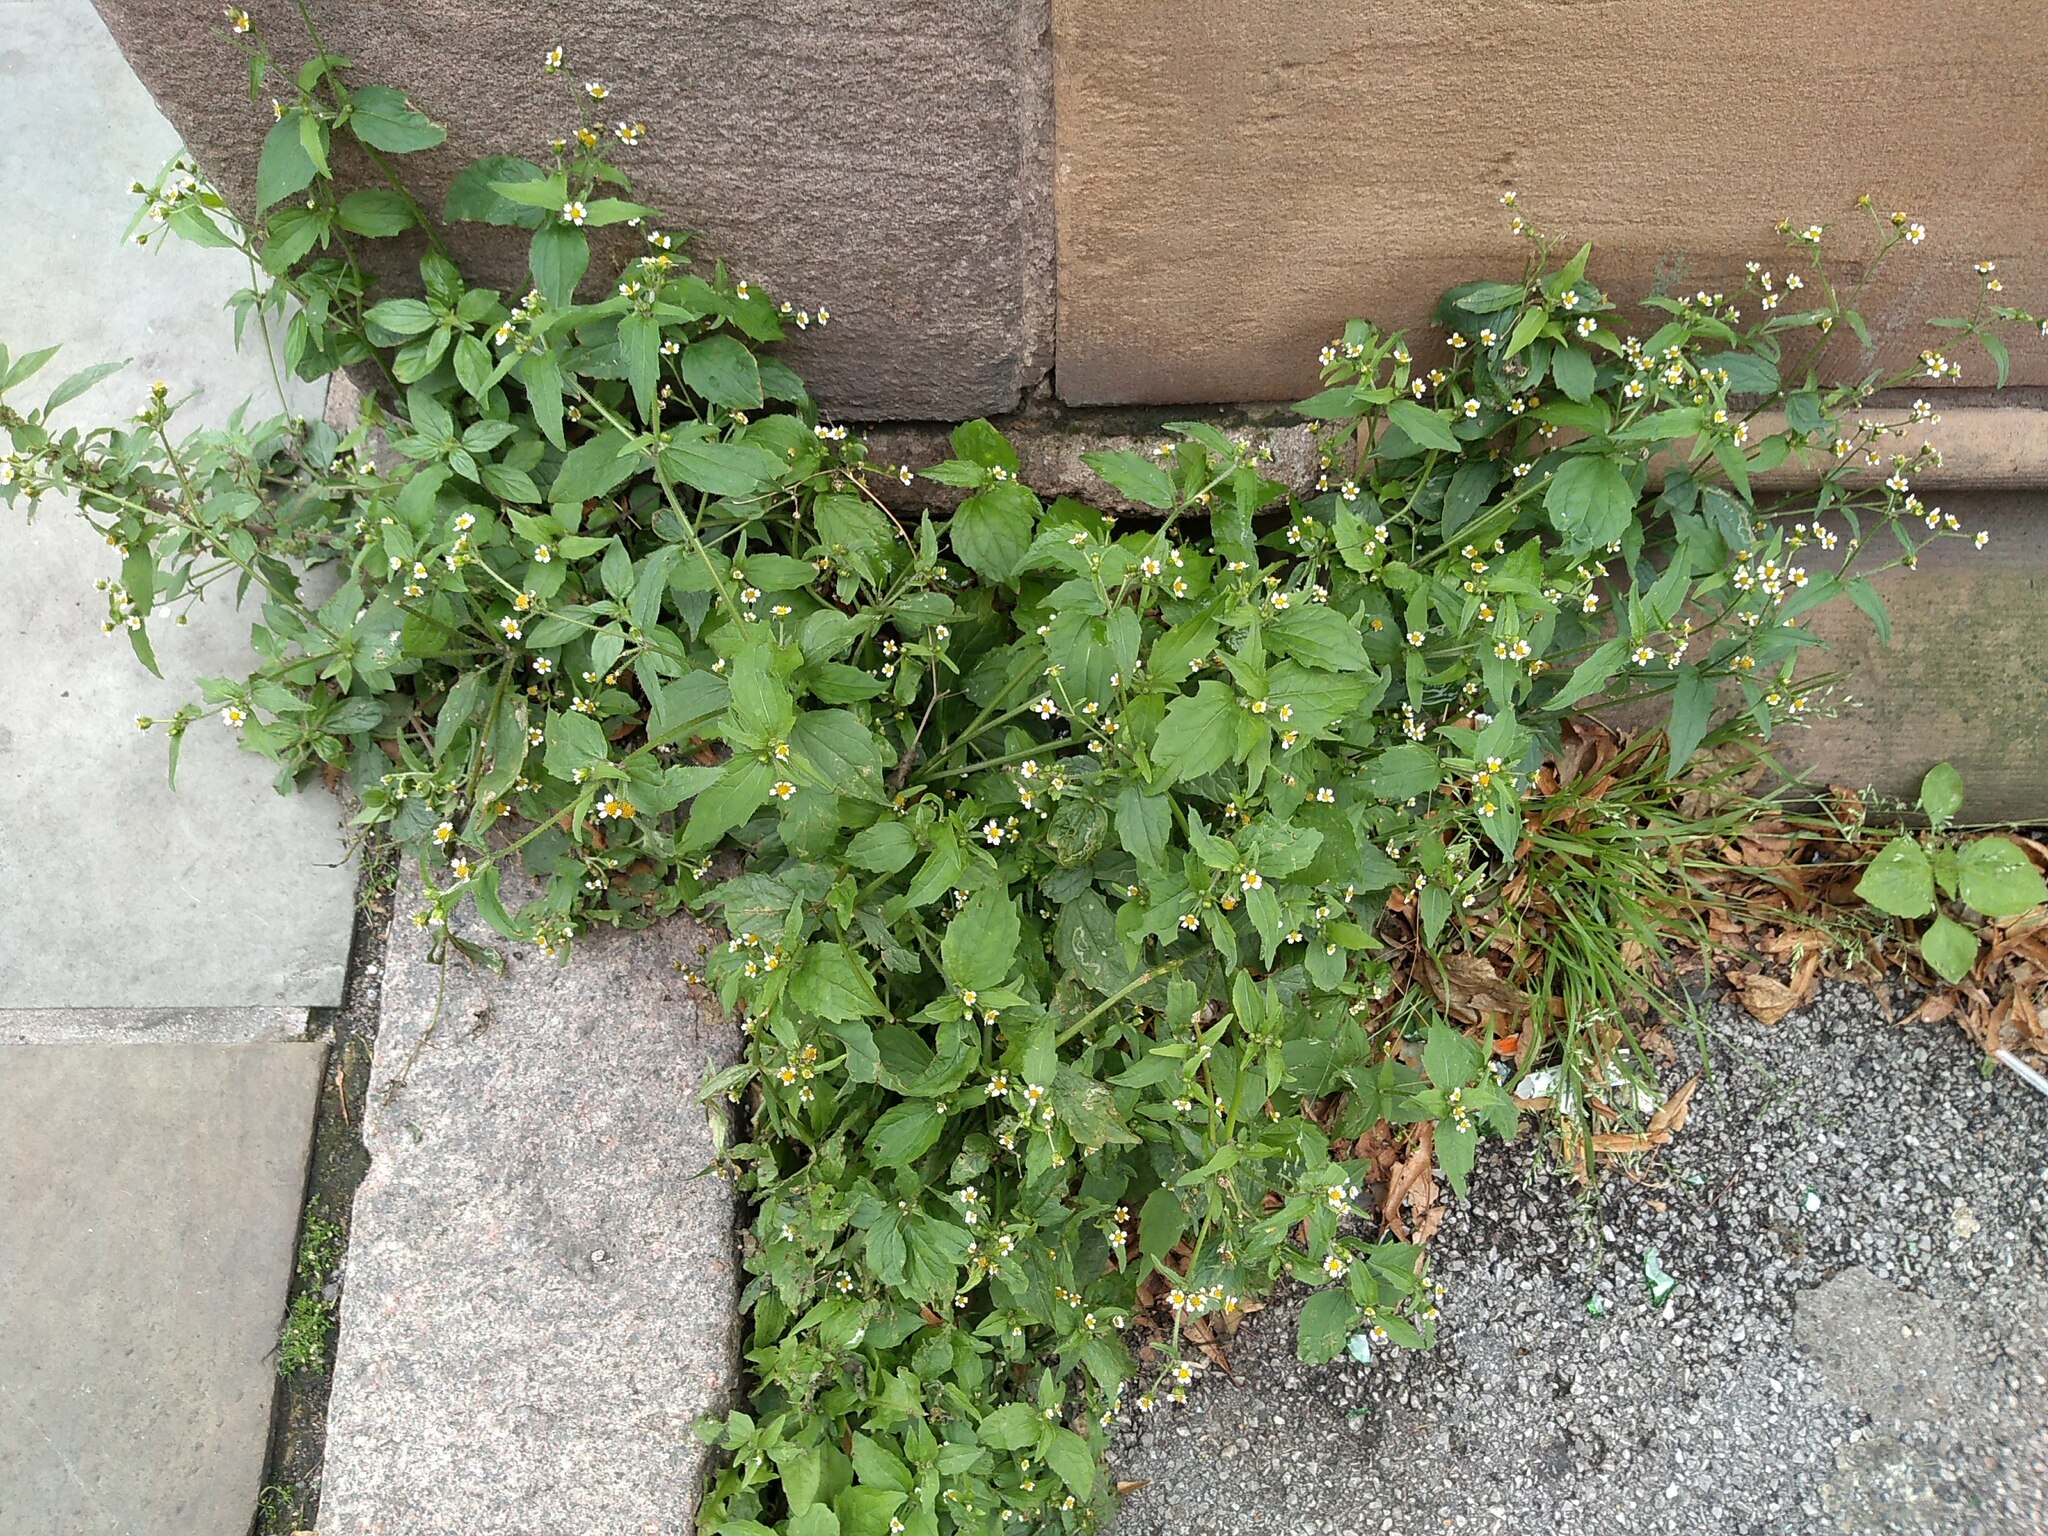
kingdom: Plantae
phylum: Tracheophyta
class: Magnoliopsida
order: Asterales
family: Asteraceae
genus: Galinsoga
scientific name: Galinsoga quadriradiata
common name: Shaggy soldier
